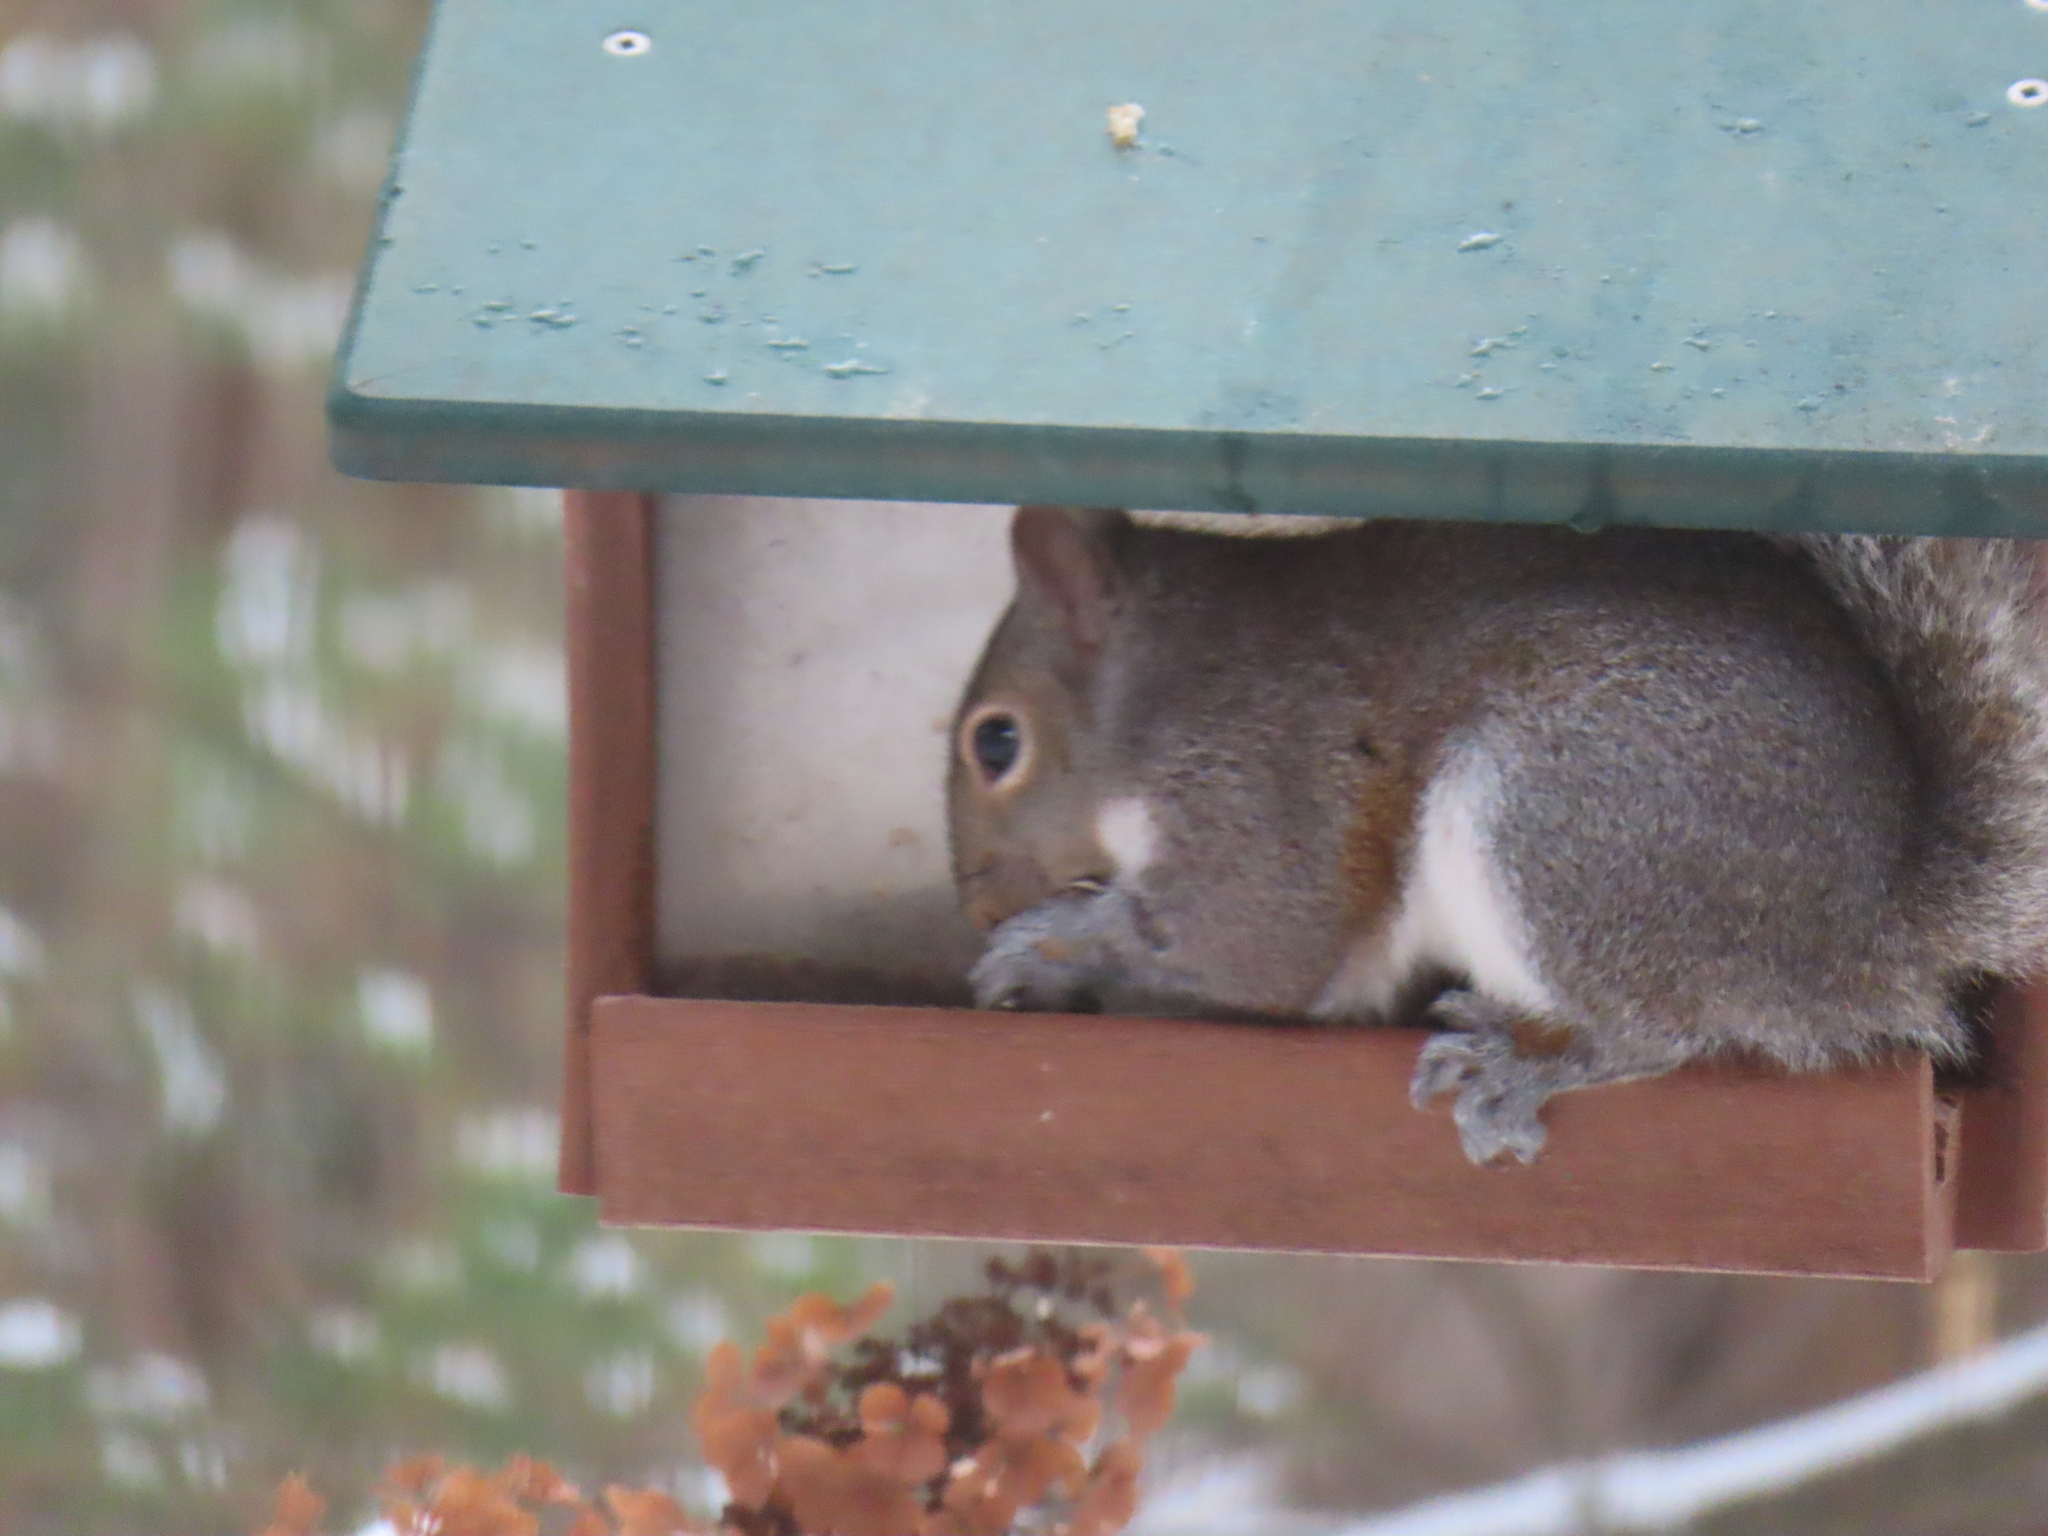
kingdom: Animalia
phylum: Chordata
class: Mammalia
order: Rodentia
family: Sciuridae
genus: Sciurus
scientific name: Sciurus carolinensis
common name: Eastern gray squirrel
